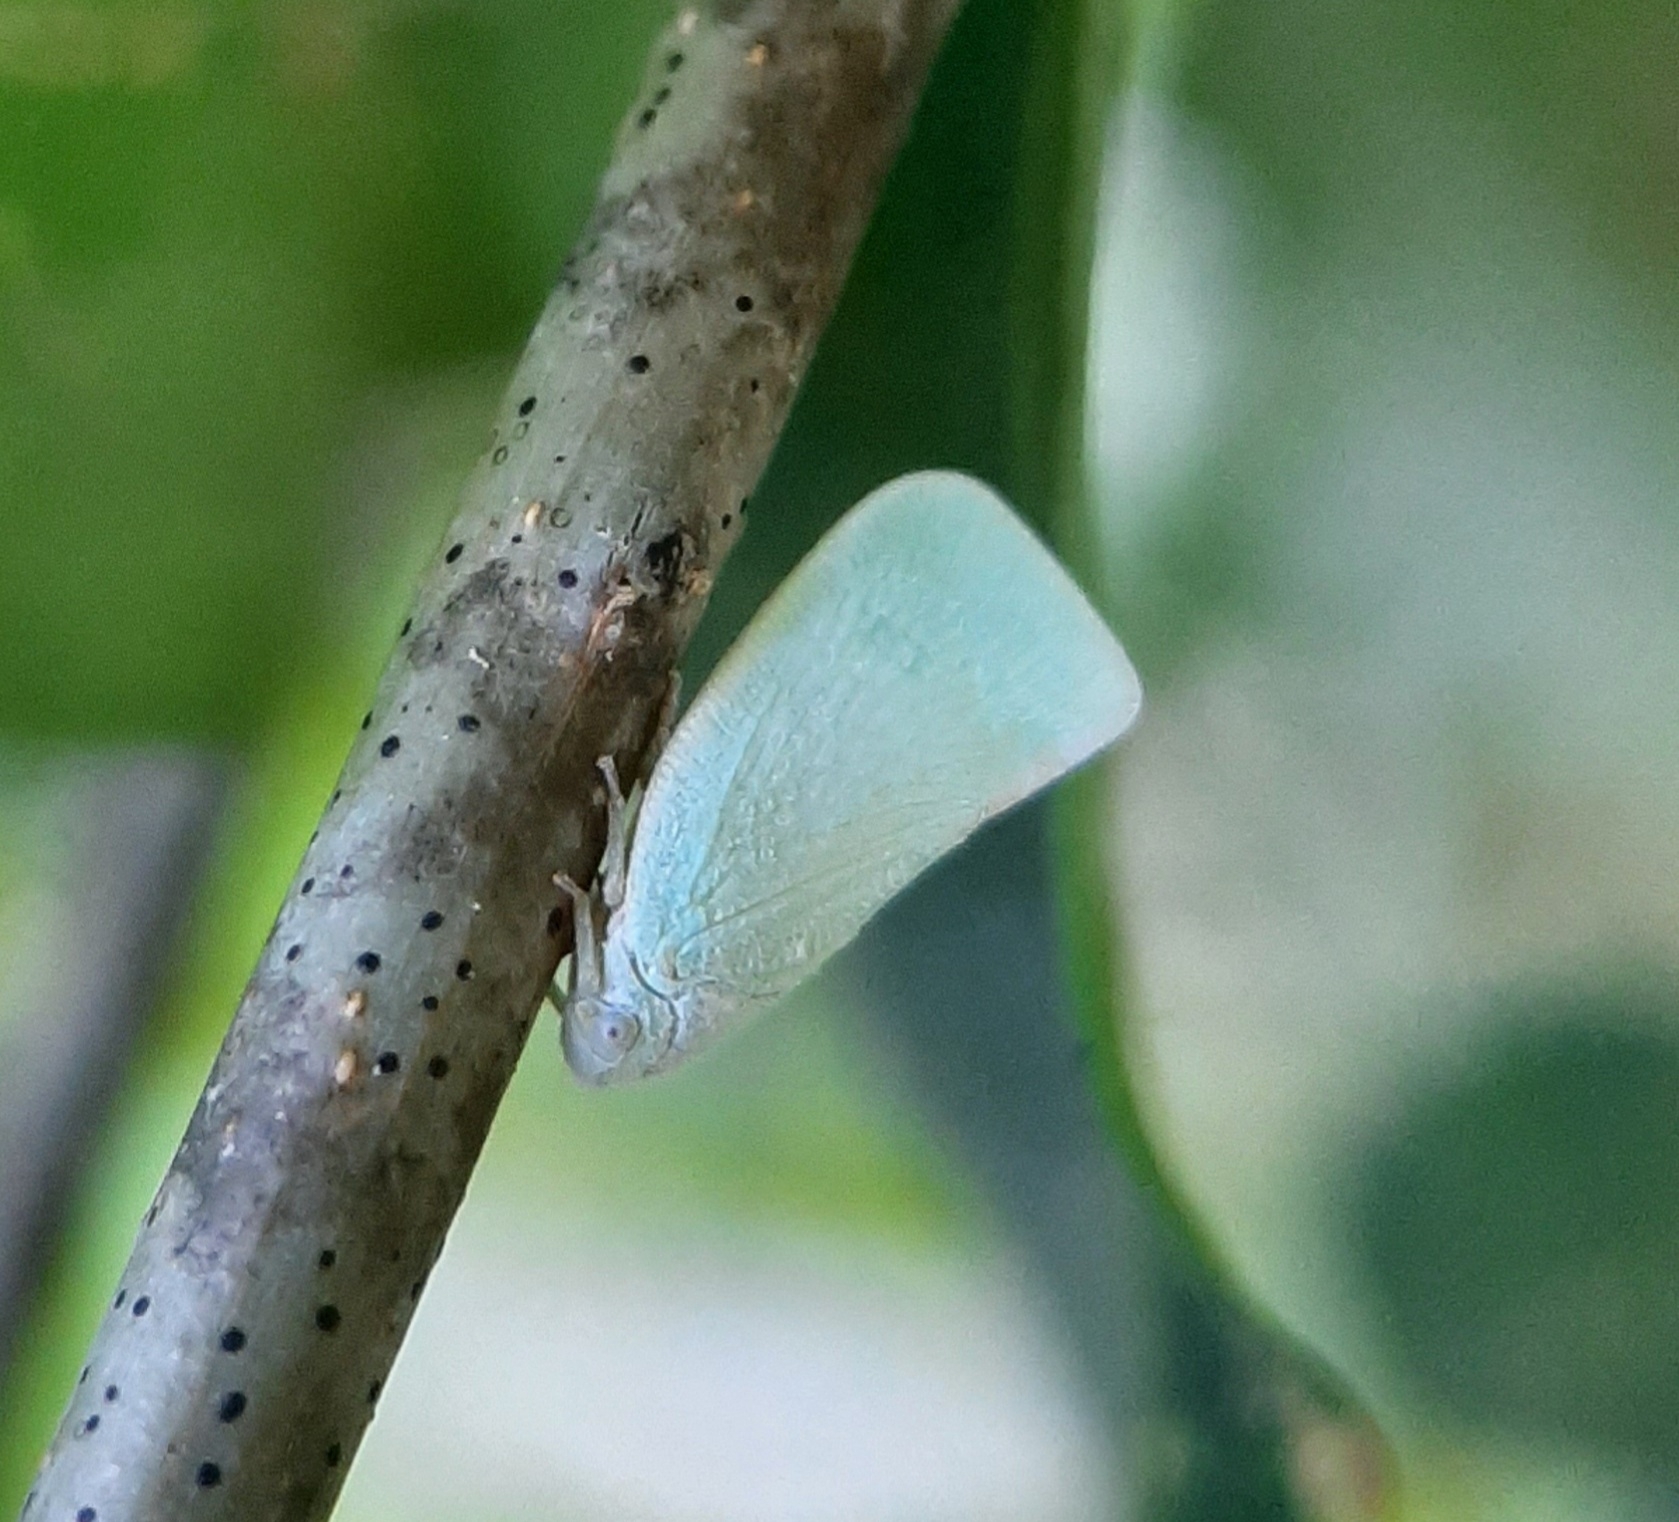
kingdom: Animalia
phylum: Arthropoda
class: Insecta
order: Hemiptera
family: Flatidae
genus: Flatormenis
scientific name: Flatormenis proxima
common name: Northern flatid planthopper
